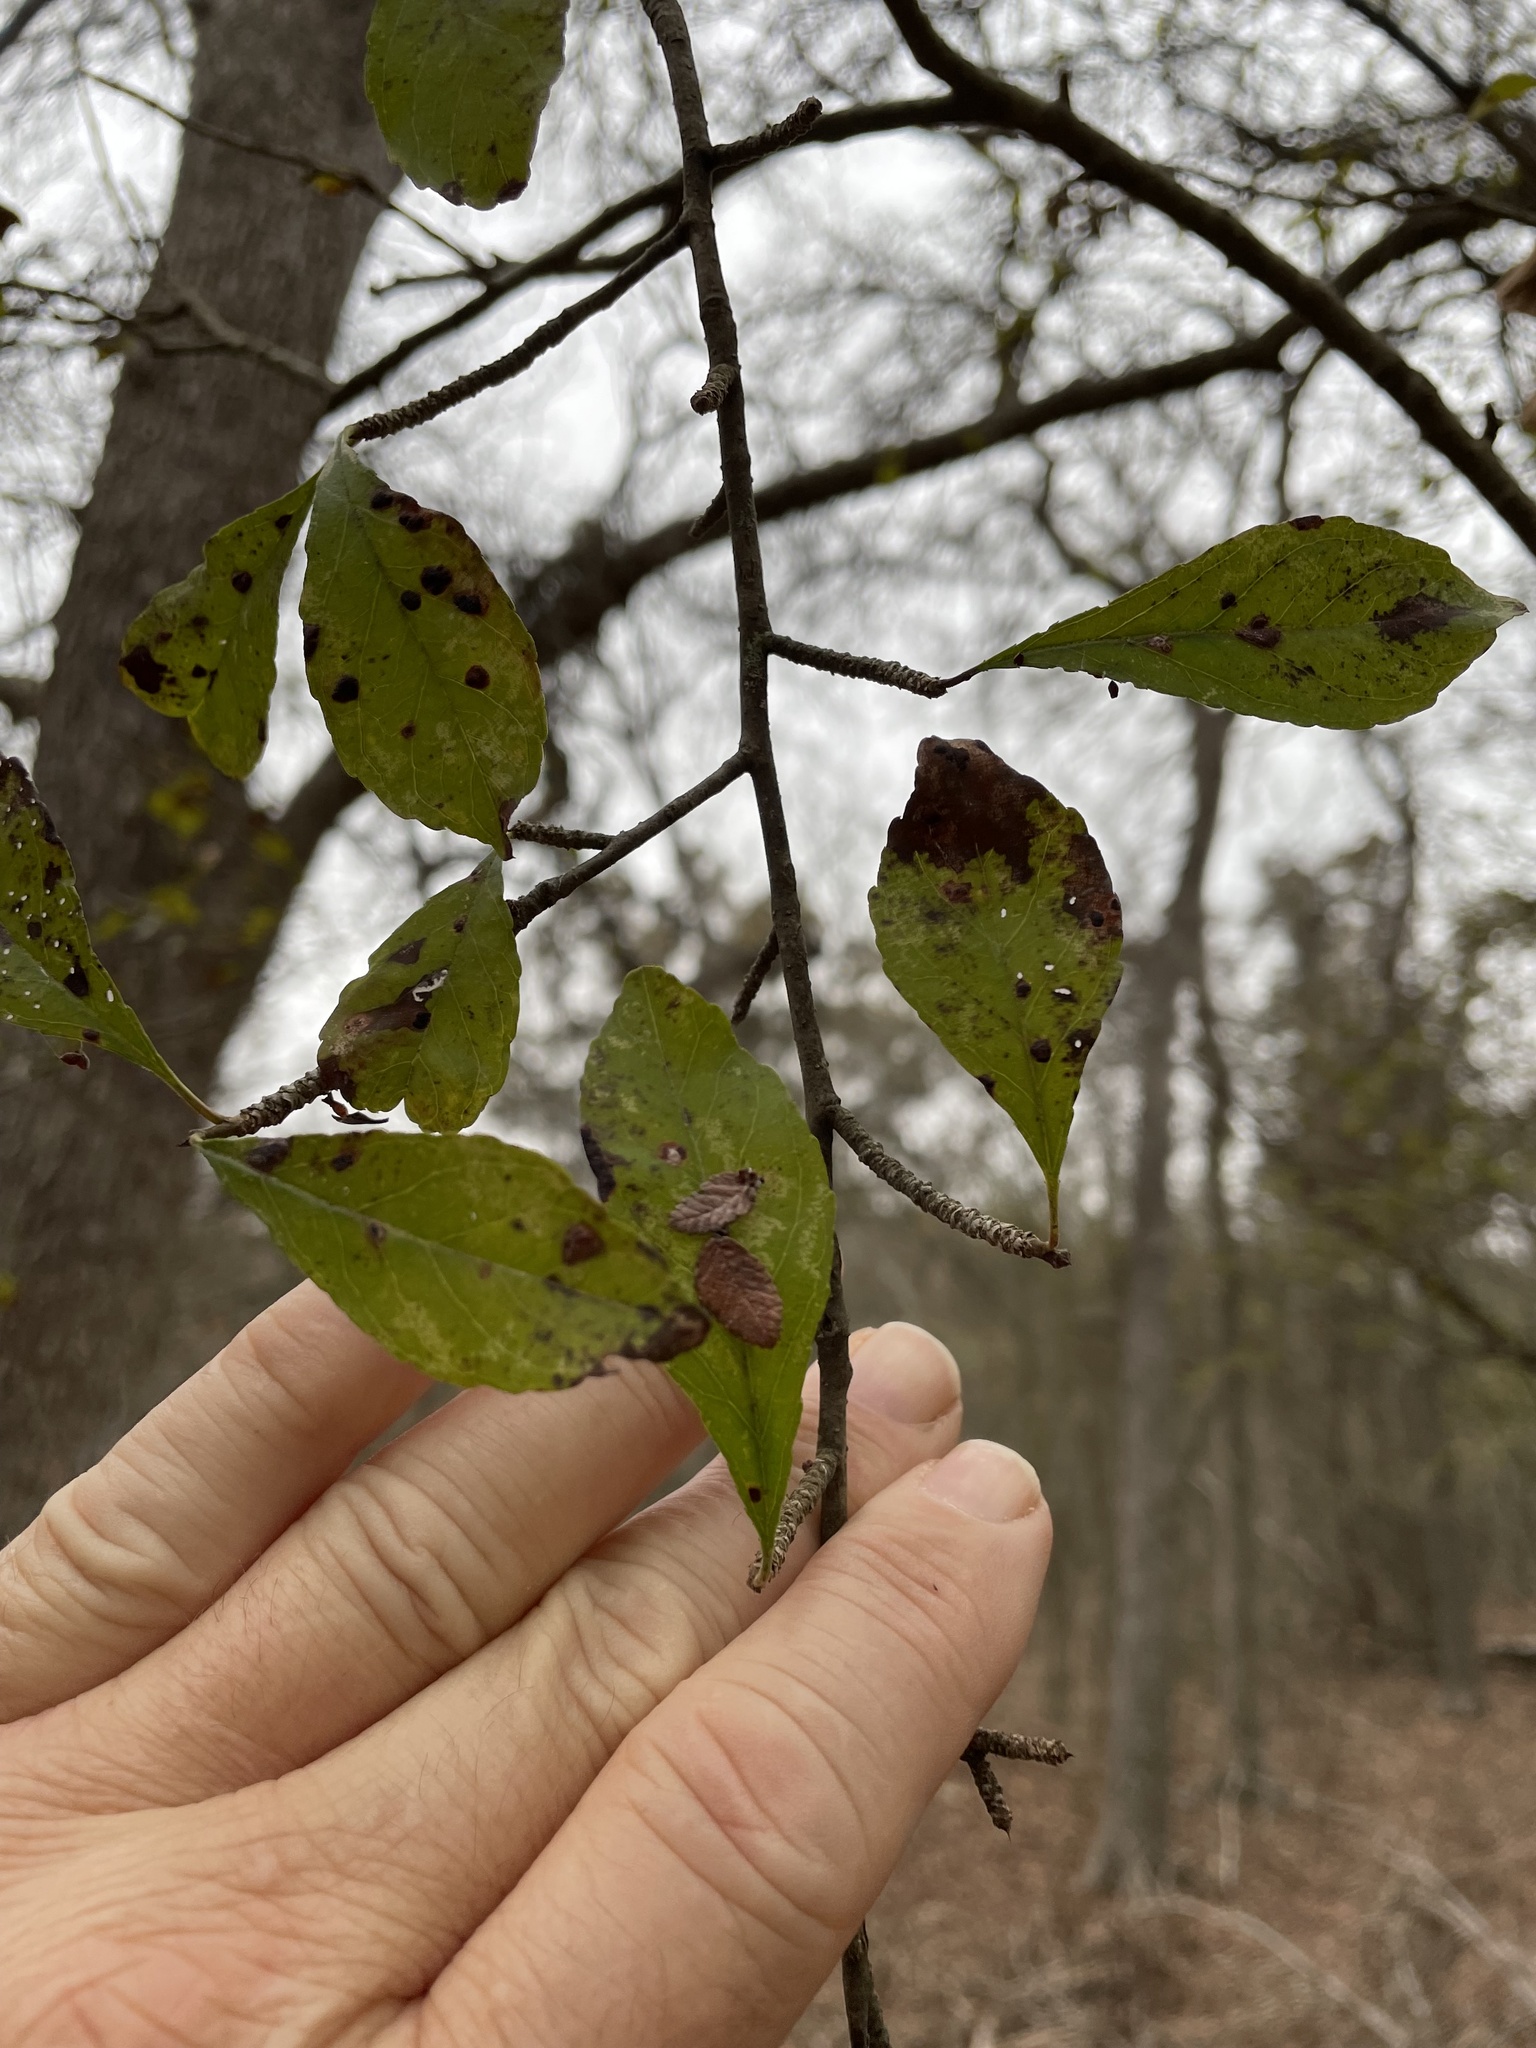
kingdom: Plantae
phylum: Tracheophyta
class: Magnoliopsida
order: Aquifoliales
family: Aquifoliaceae
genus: Ilex
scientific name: Ilex decidua
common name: Possum-haw
